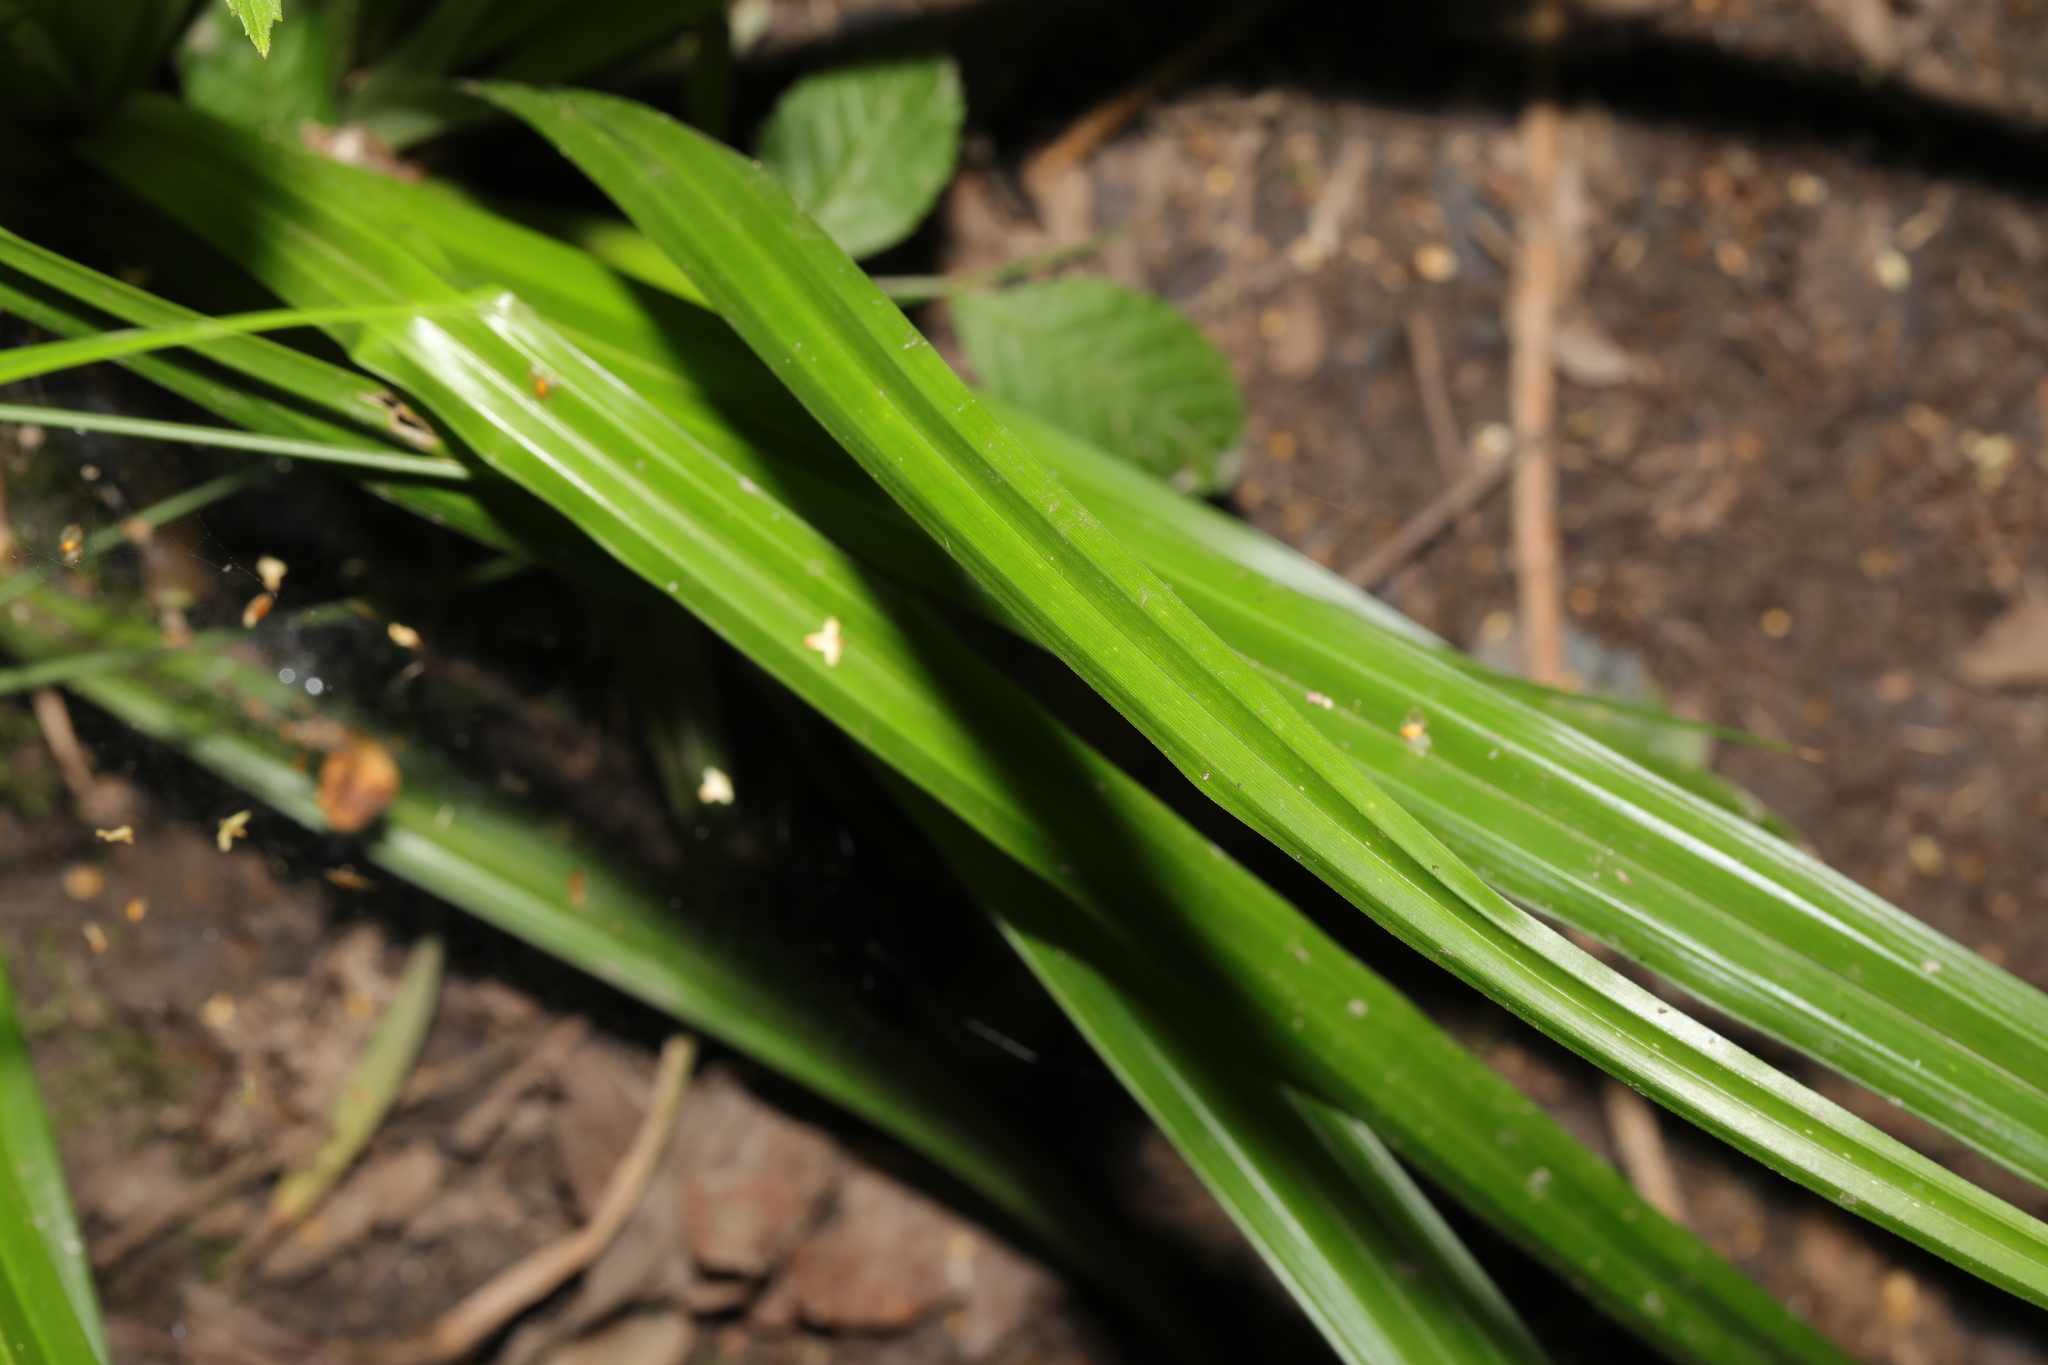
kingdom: Plantae
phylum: Tracheophyta
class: Liliopsida
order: Poales
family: Cyperaceae
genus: Carex
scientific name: Carex pendula
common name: Pendulous sedge
